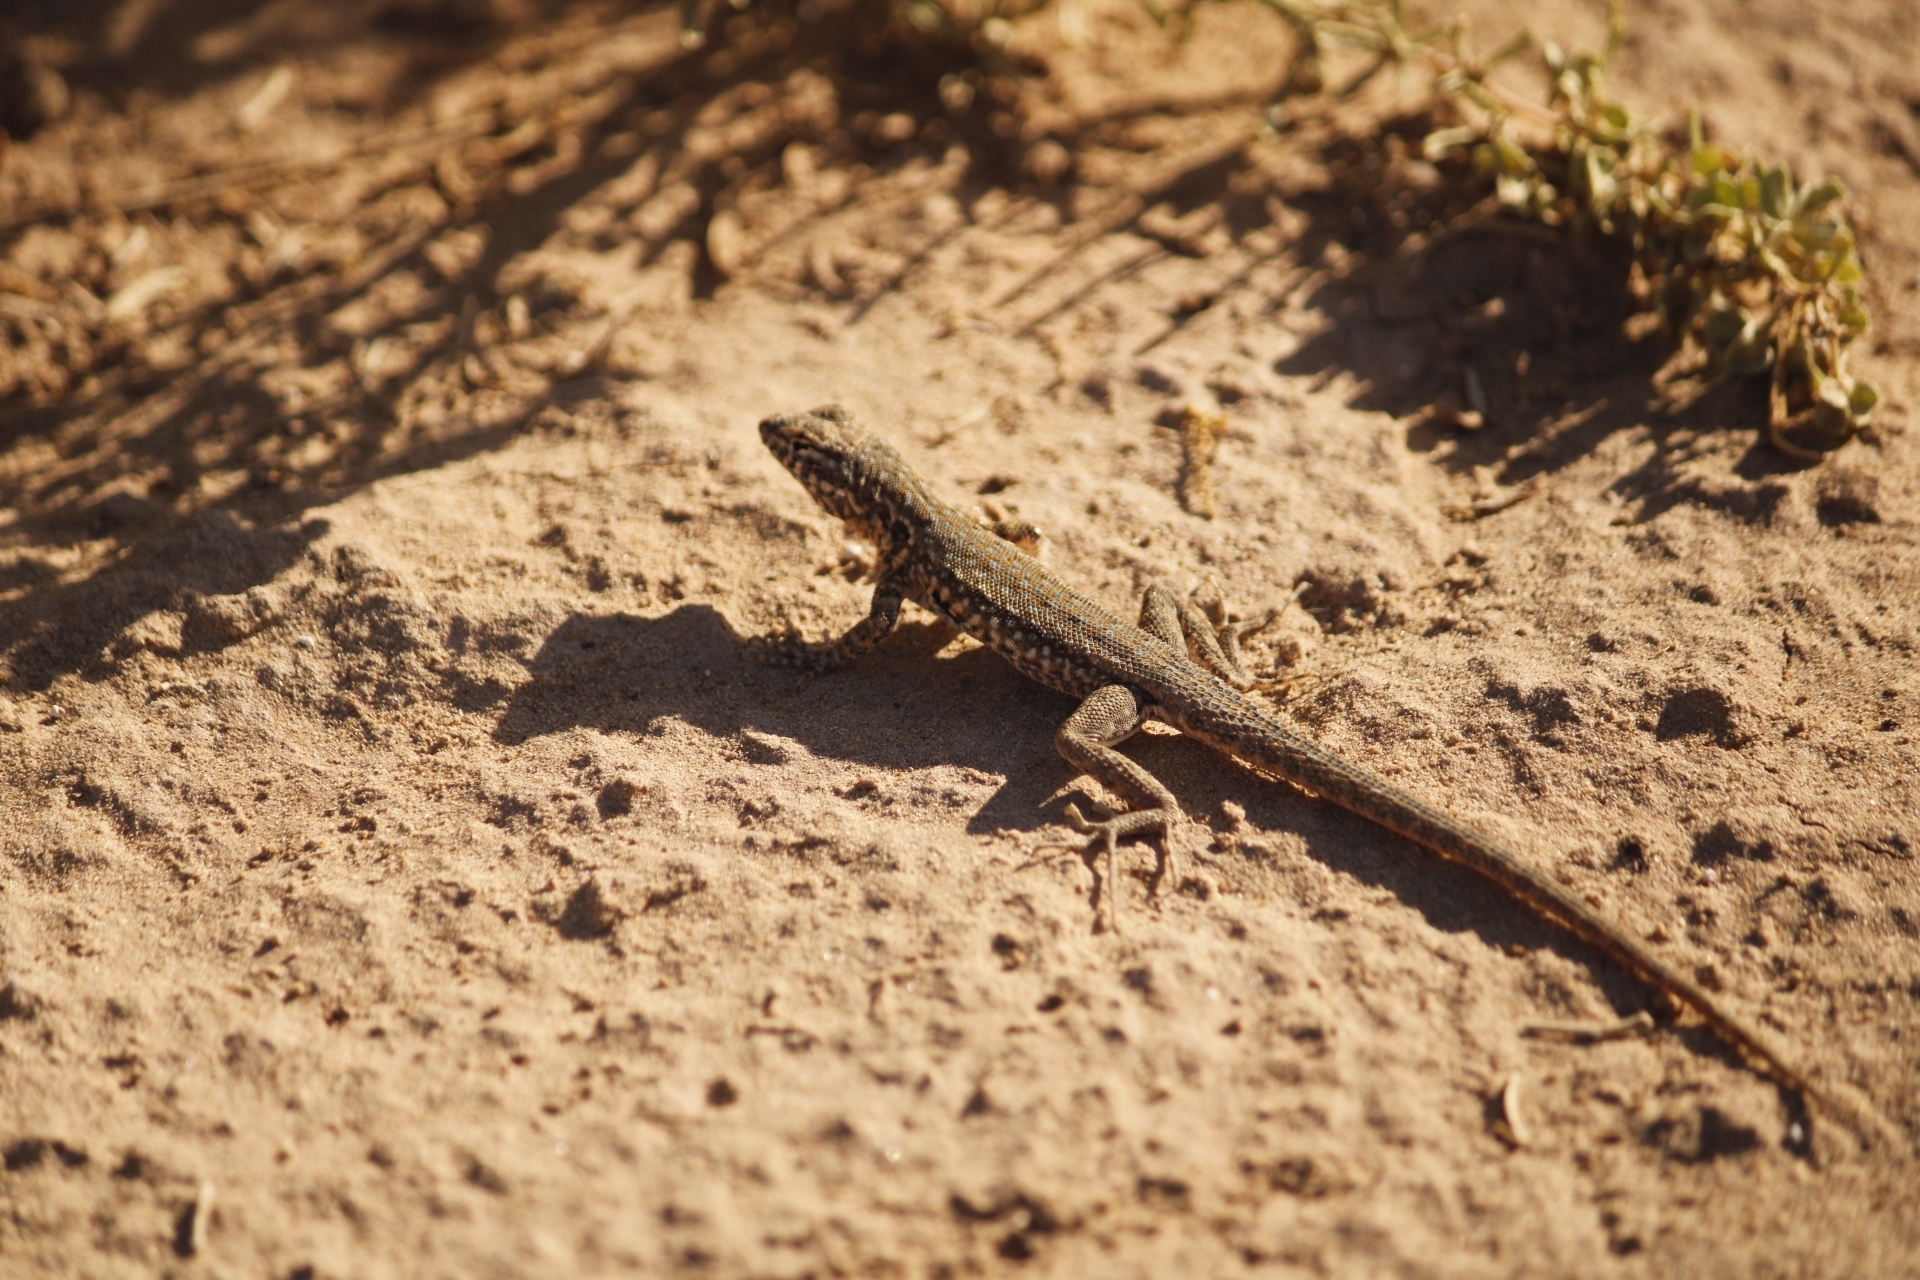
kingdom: Animalia
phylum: Chordata
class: Squamata
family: Phrynosomatidae
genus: Uta
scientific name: Uta stansburiana
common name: Side-blotched lizard
